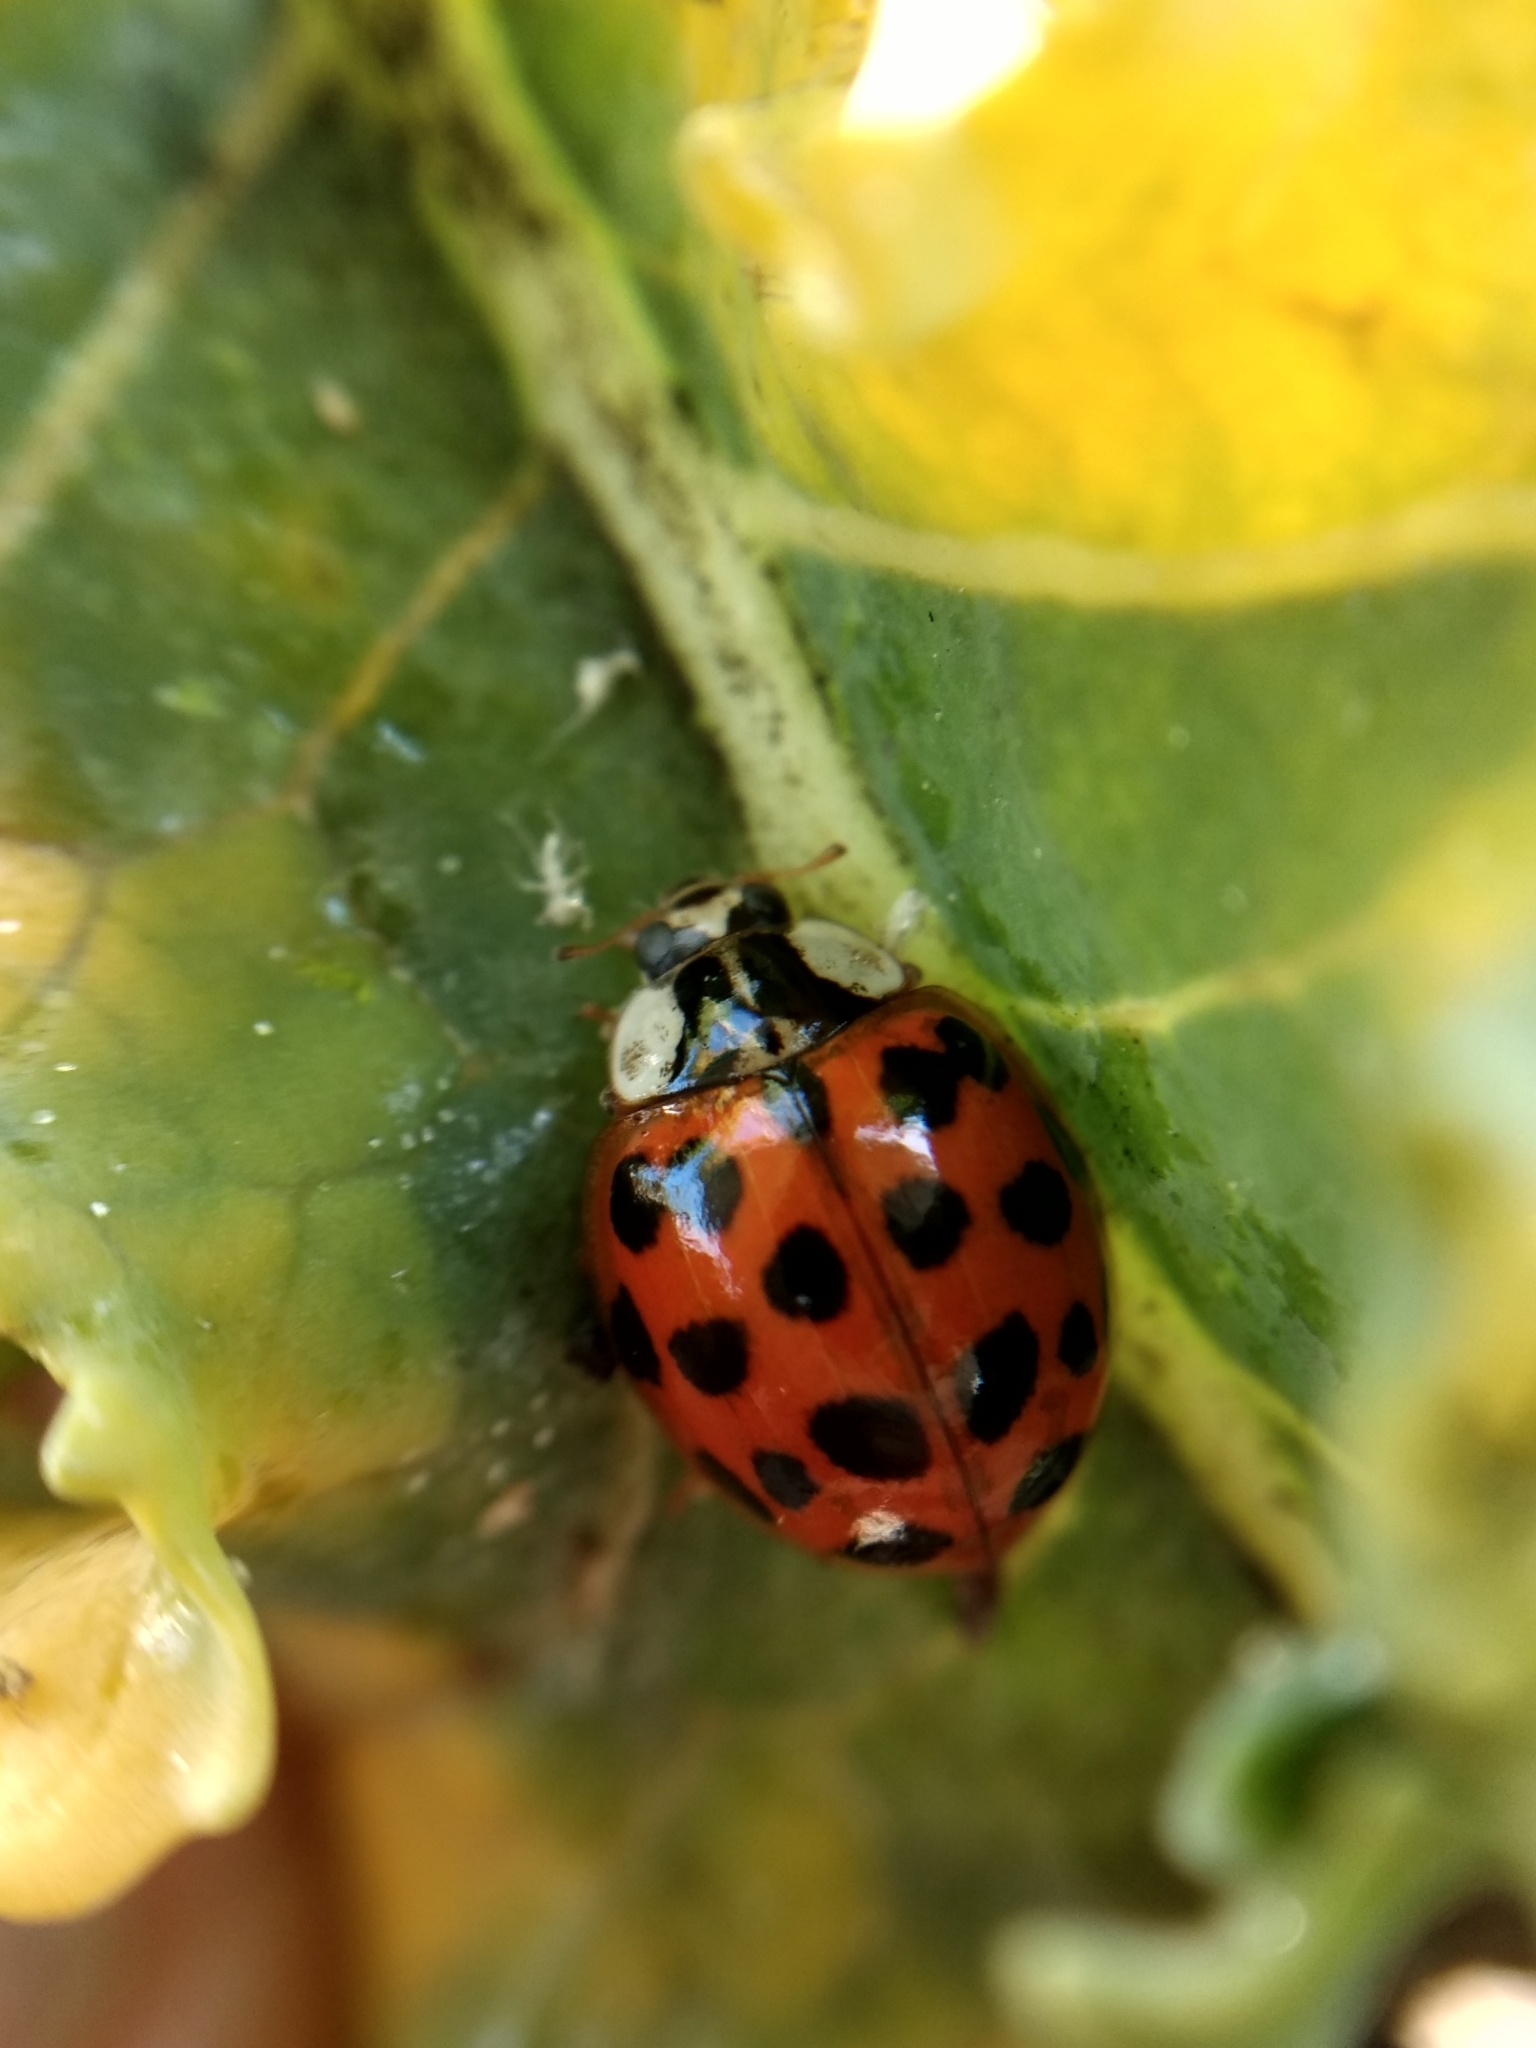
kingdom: Animalia
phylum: Arthropoda
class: Insecta
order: Coleoptera
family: Coccinellidae
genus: Harmonia
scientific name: Harmonia axyridis
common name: Harlequin ladybird
